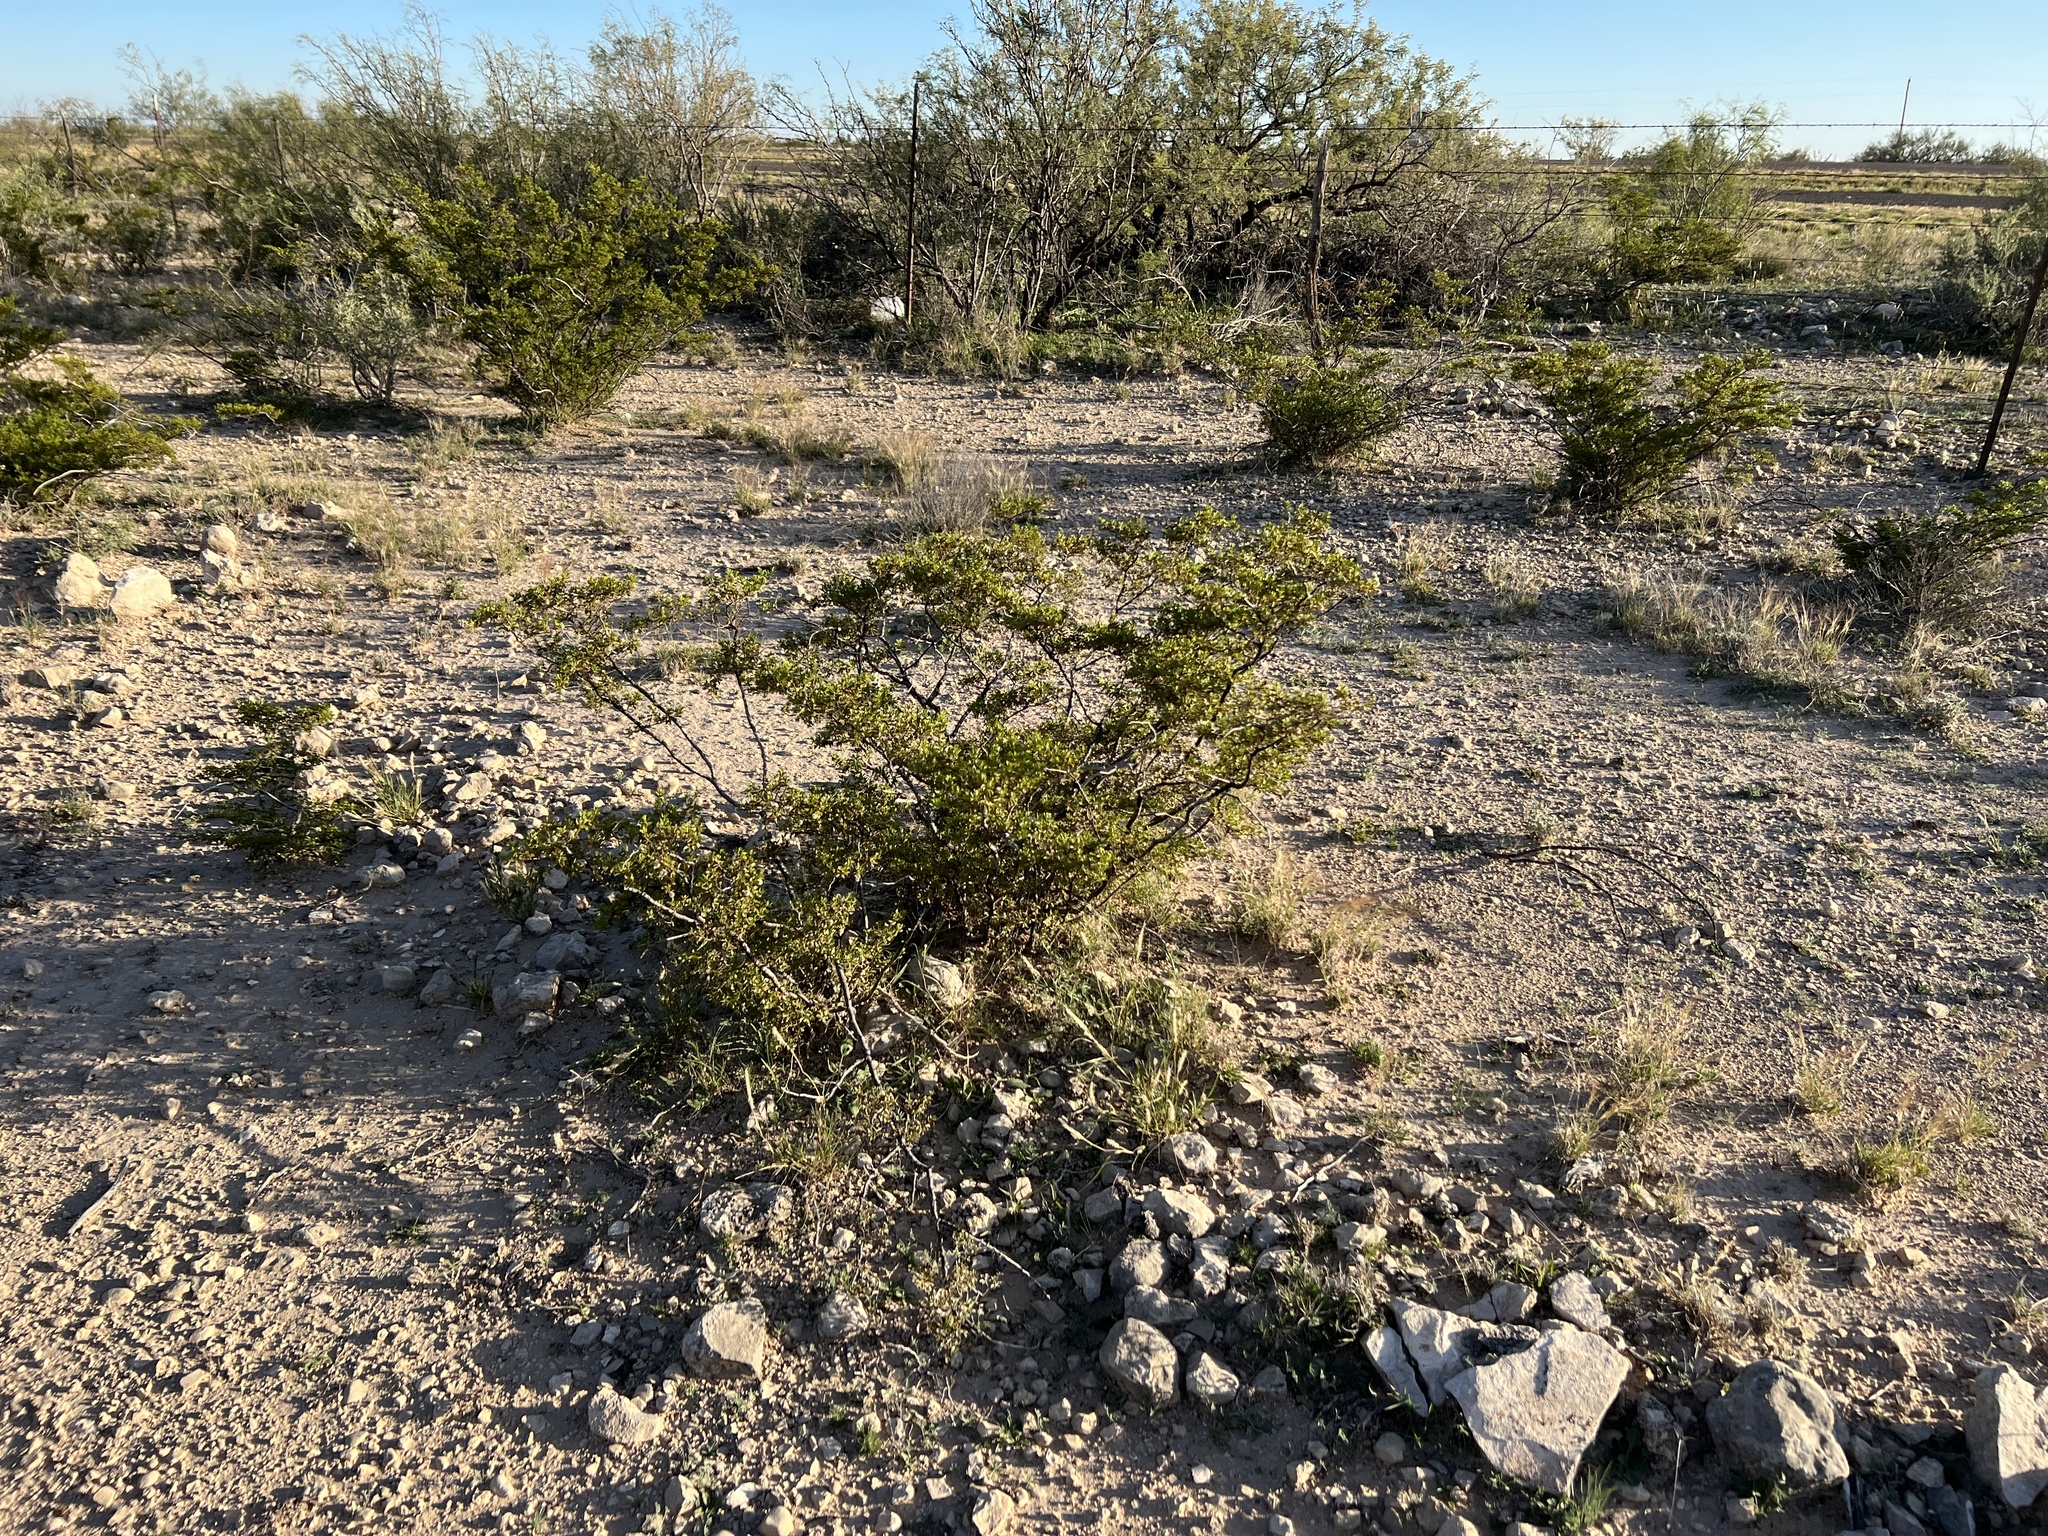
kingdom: Plantae
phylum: Tracheophyta
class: Magnoliopsida
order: Zygophyllales
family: Zygophyllaceae
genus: Larrea
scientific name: Larrea tridentata
